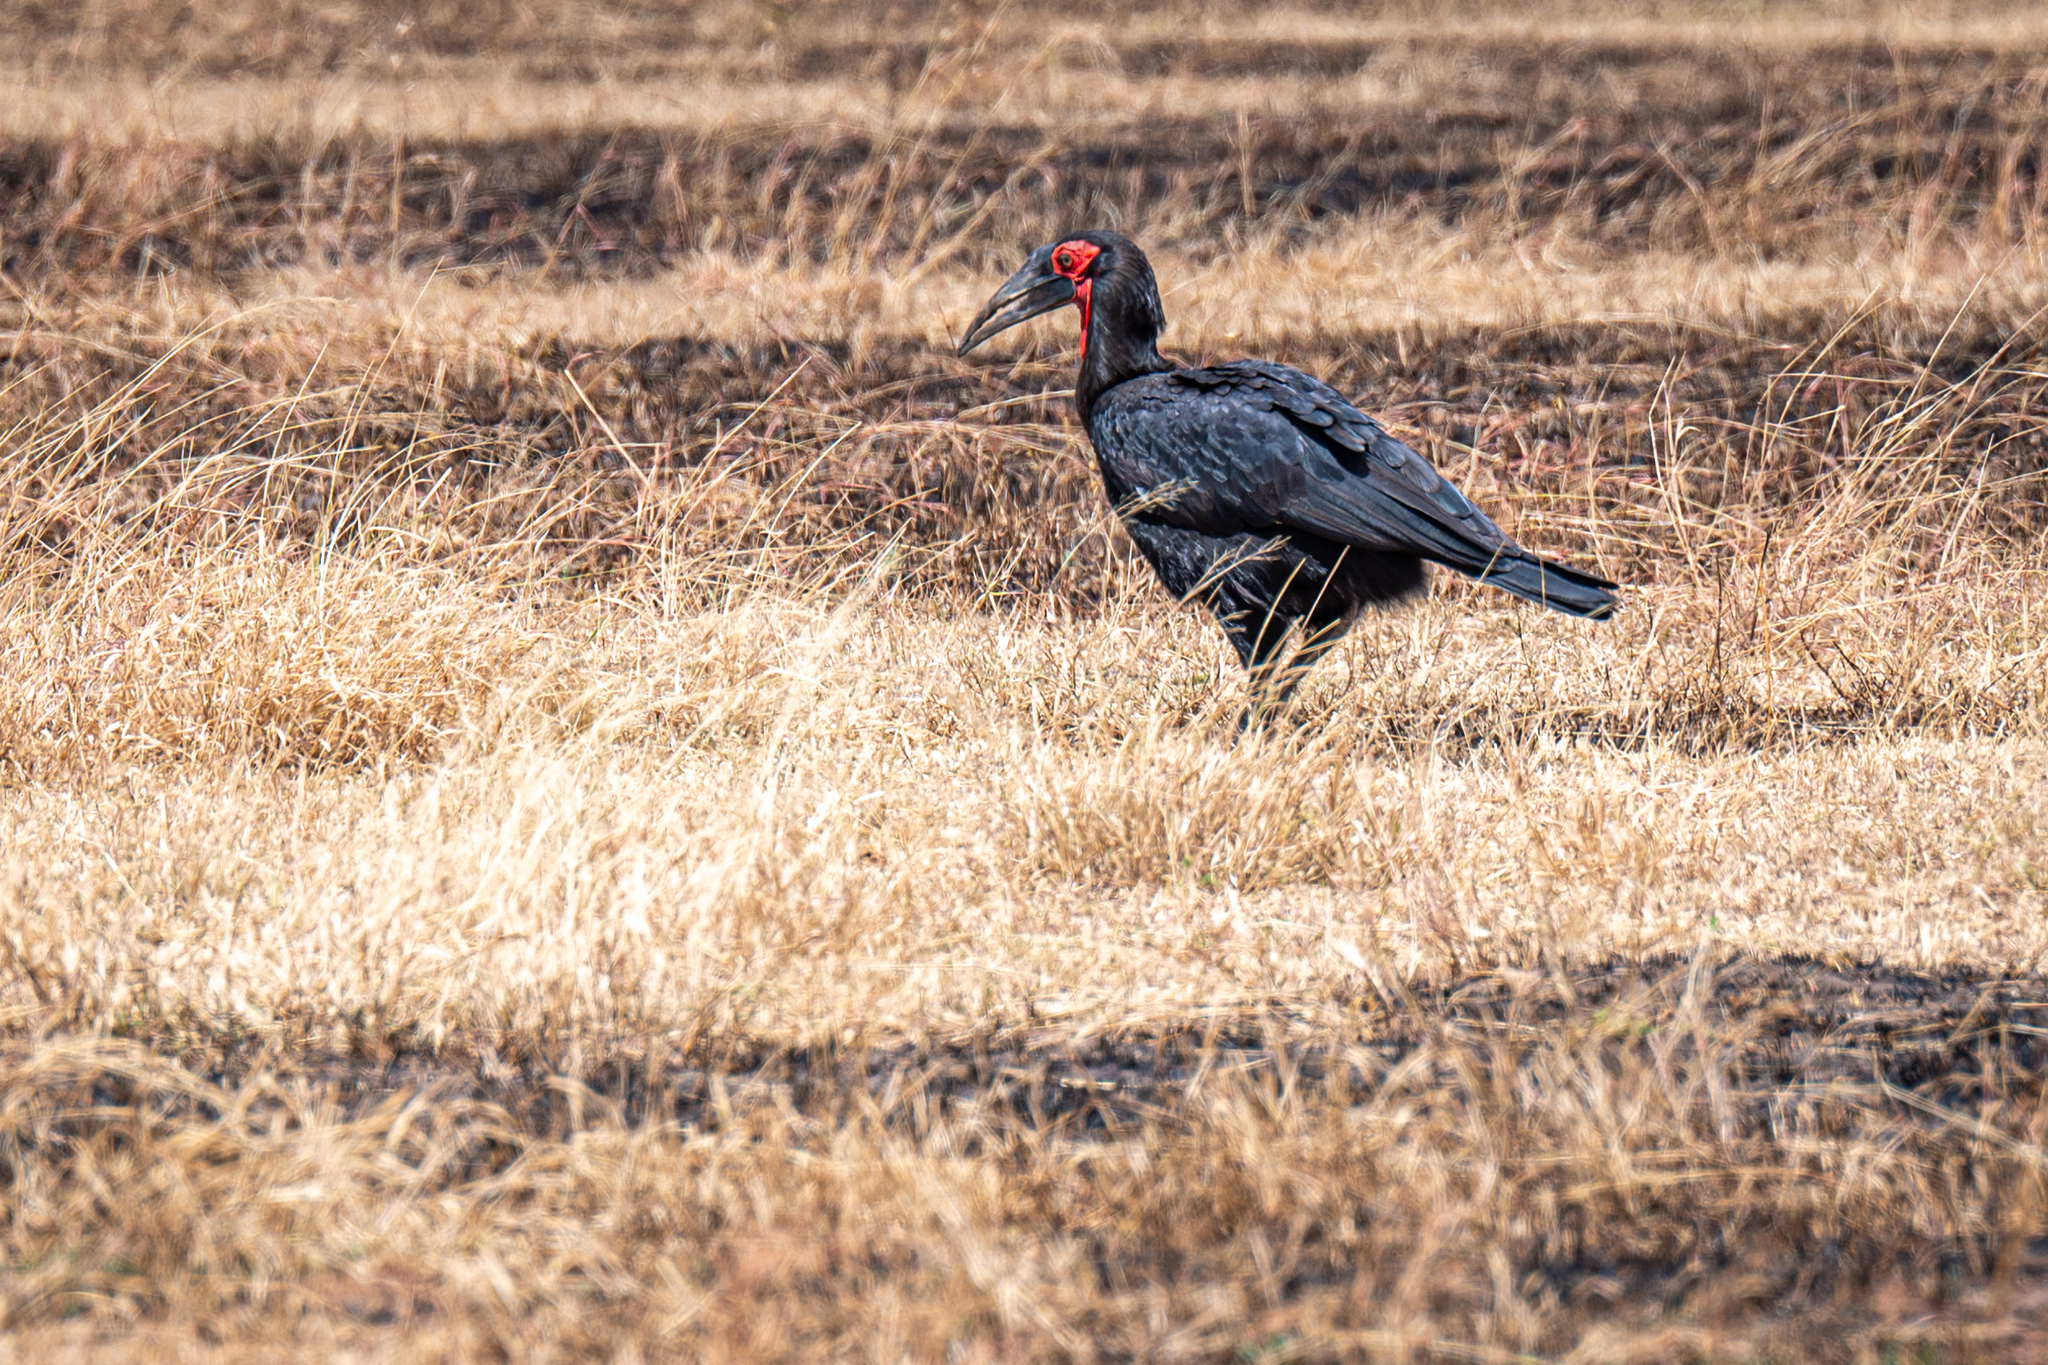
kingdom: Animalia
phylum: Chordata
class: Aves
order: Bucerotiformes
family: Bucorvidae
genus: Bucorvus
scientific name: Bucorvus leadbeateri
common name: Southern ground-hornbill
